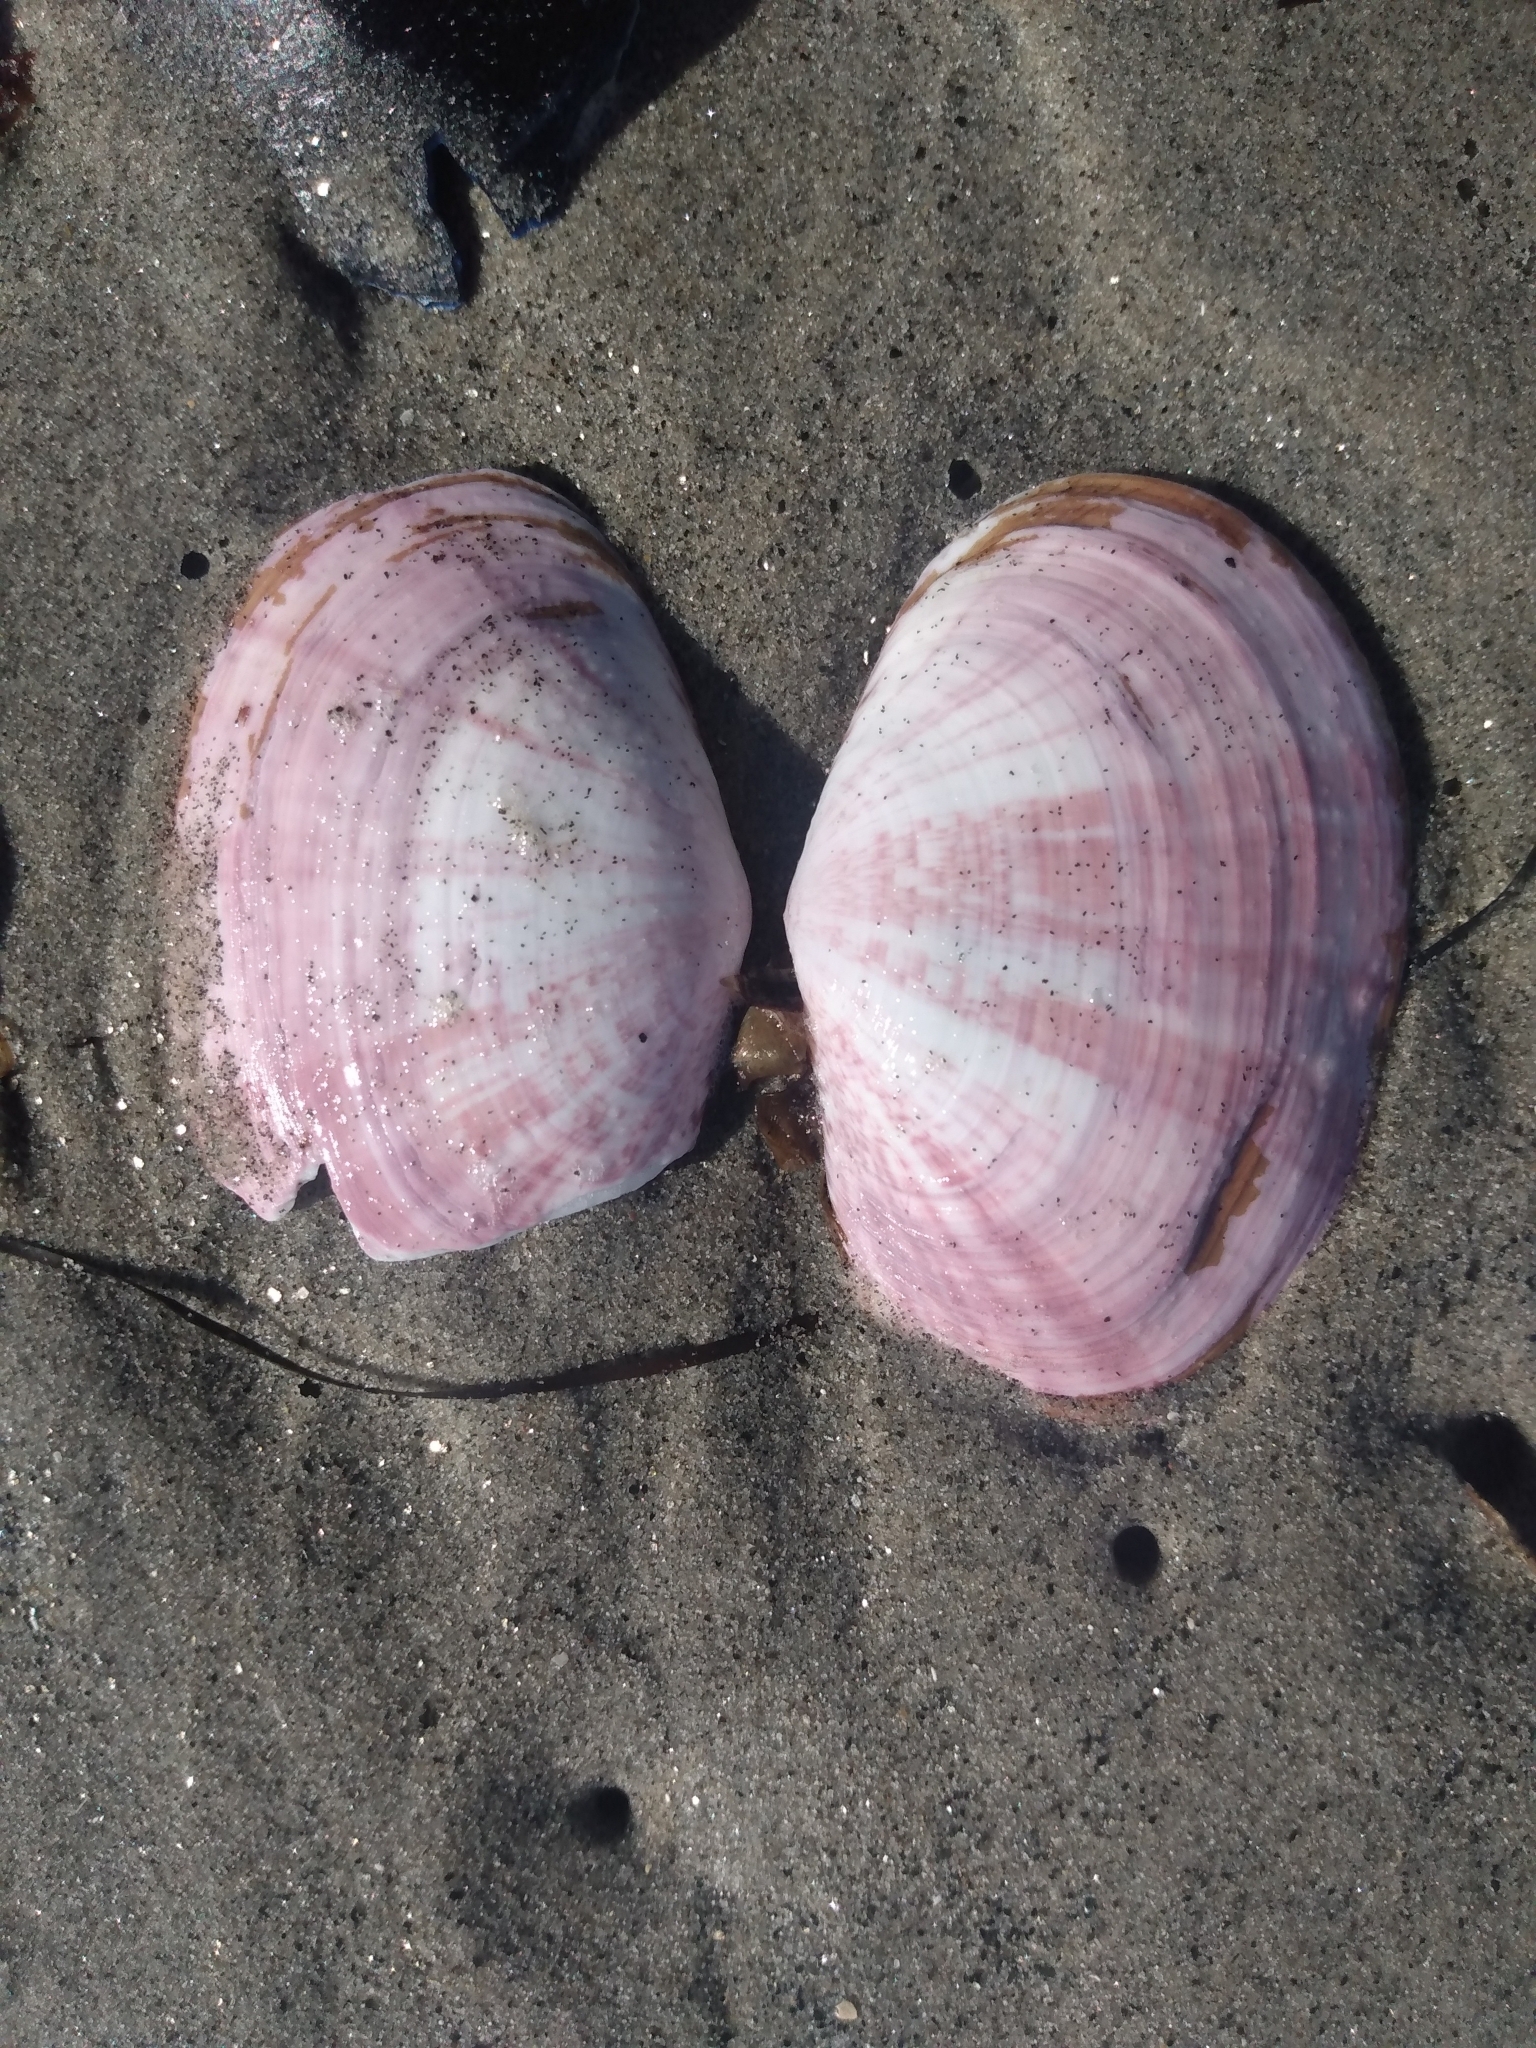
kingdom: Animalia
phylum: Mollusca
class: Bivalvia
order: Cardiida
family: Psammobiidae
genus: Gari
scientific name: Gari californica
